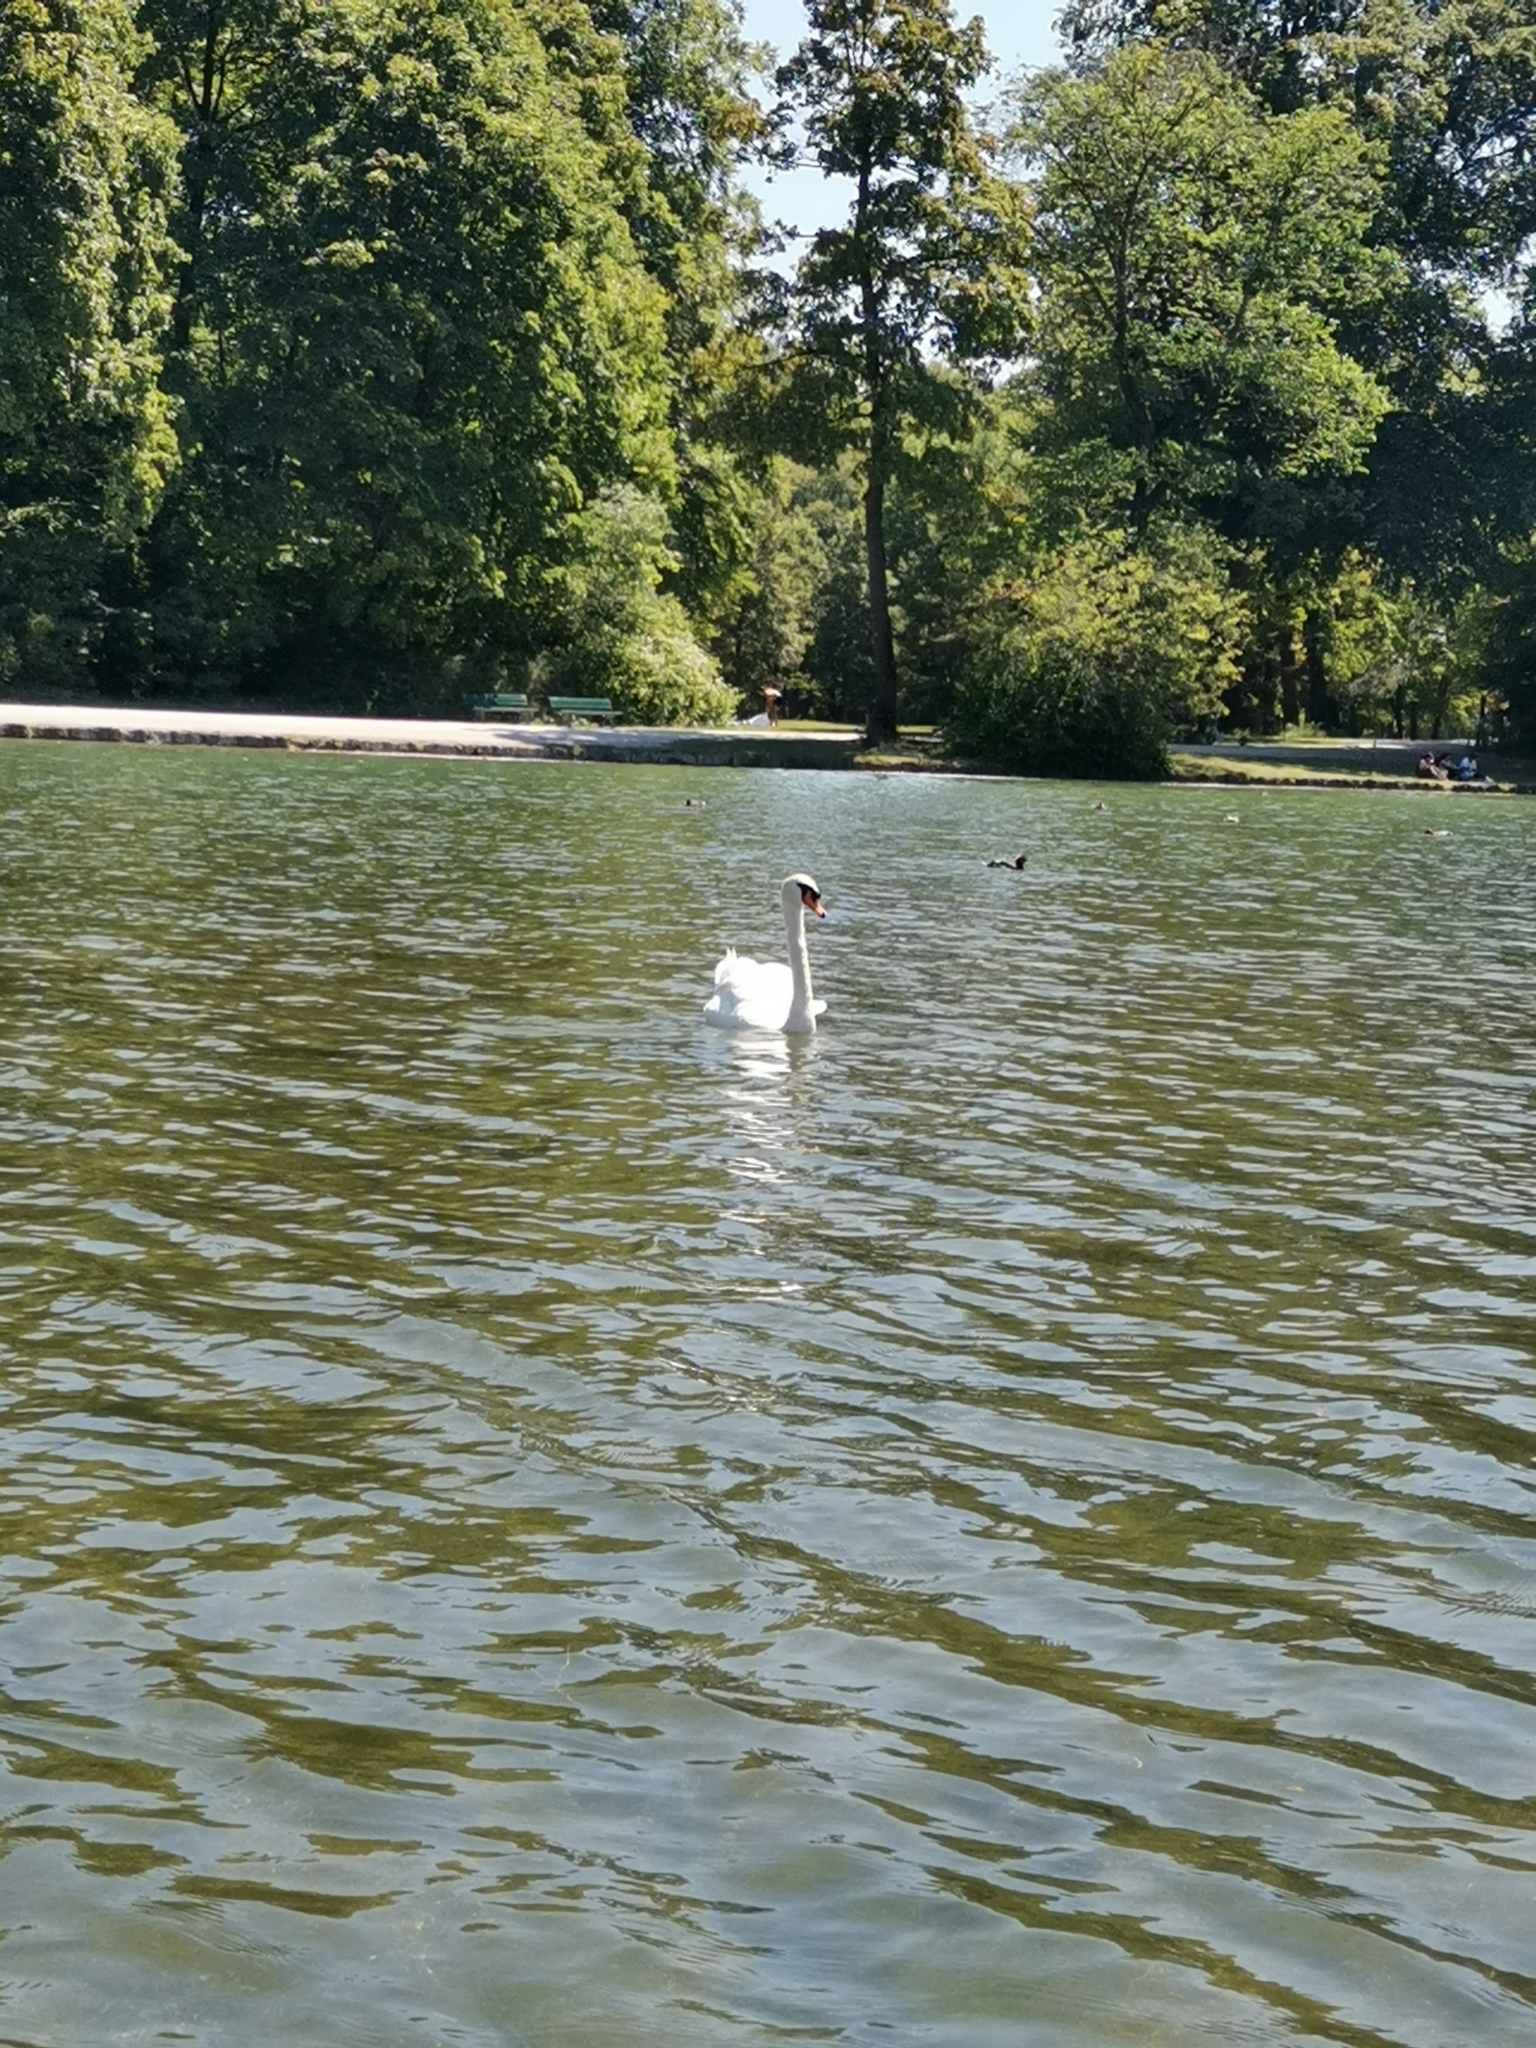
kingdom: Animalia
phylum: Chordata
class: Aves
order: Anseriformes
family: Anatidae
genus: Cygnus
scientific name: Cygnus olor
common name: Mute swan
